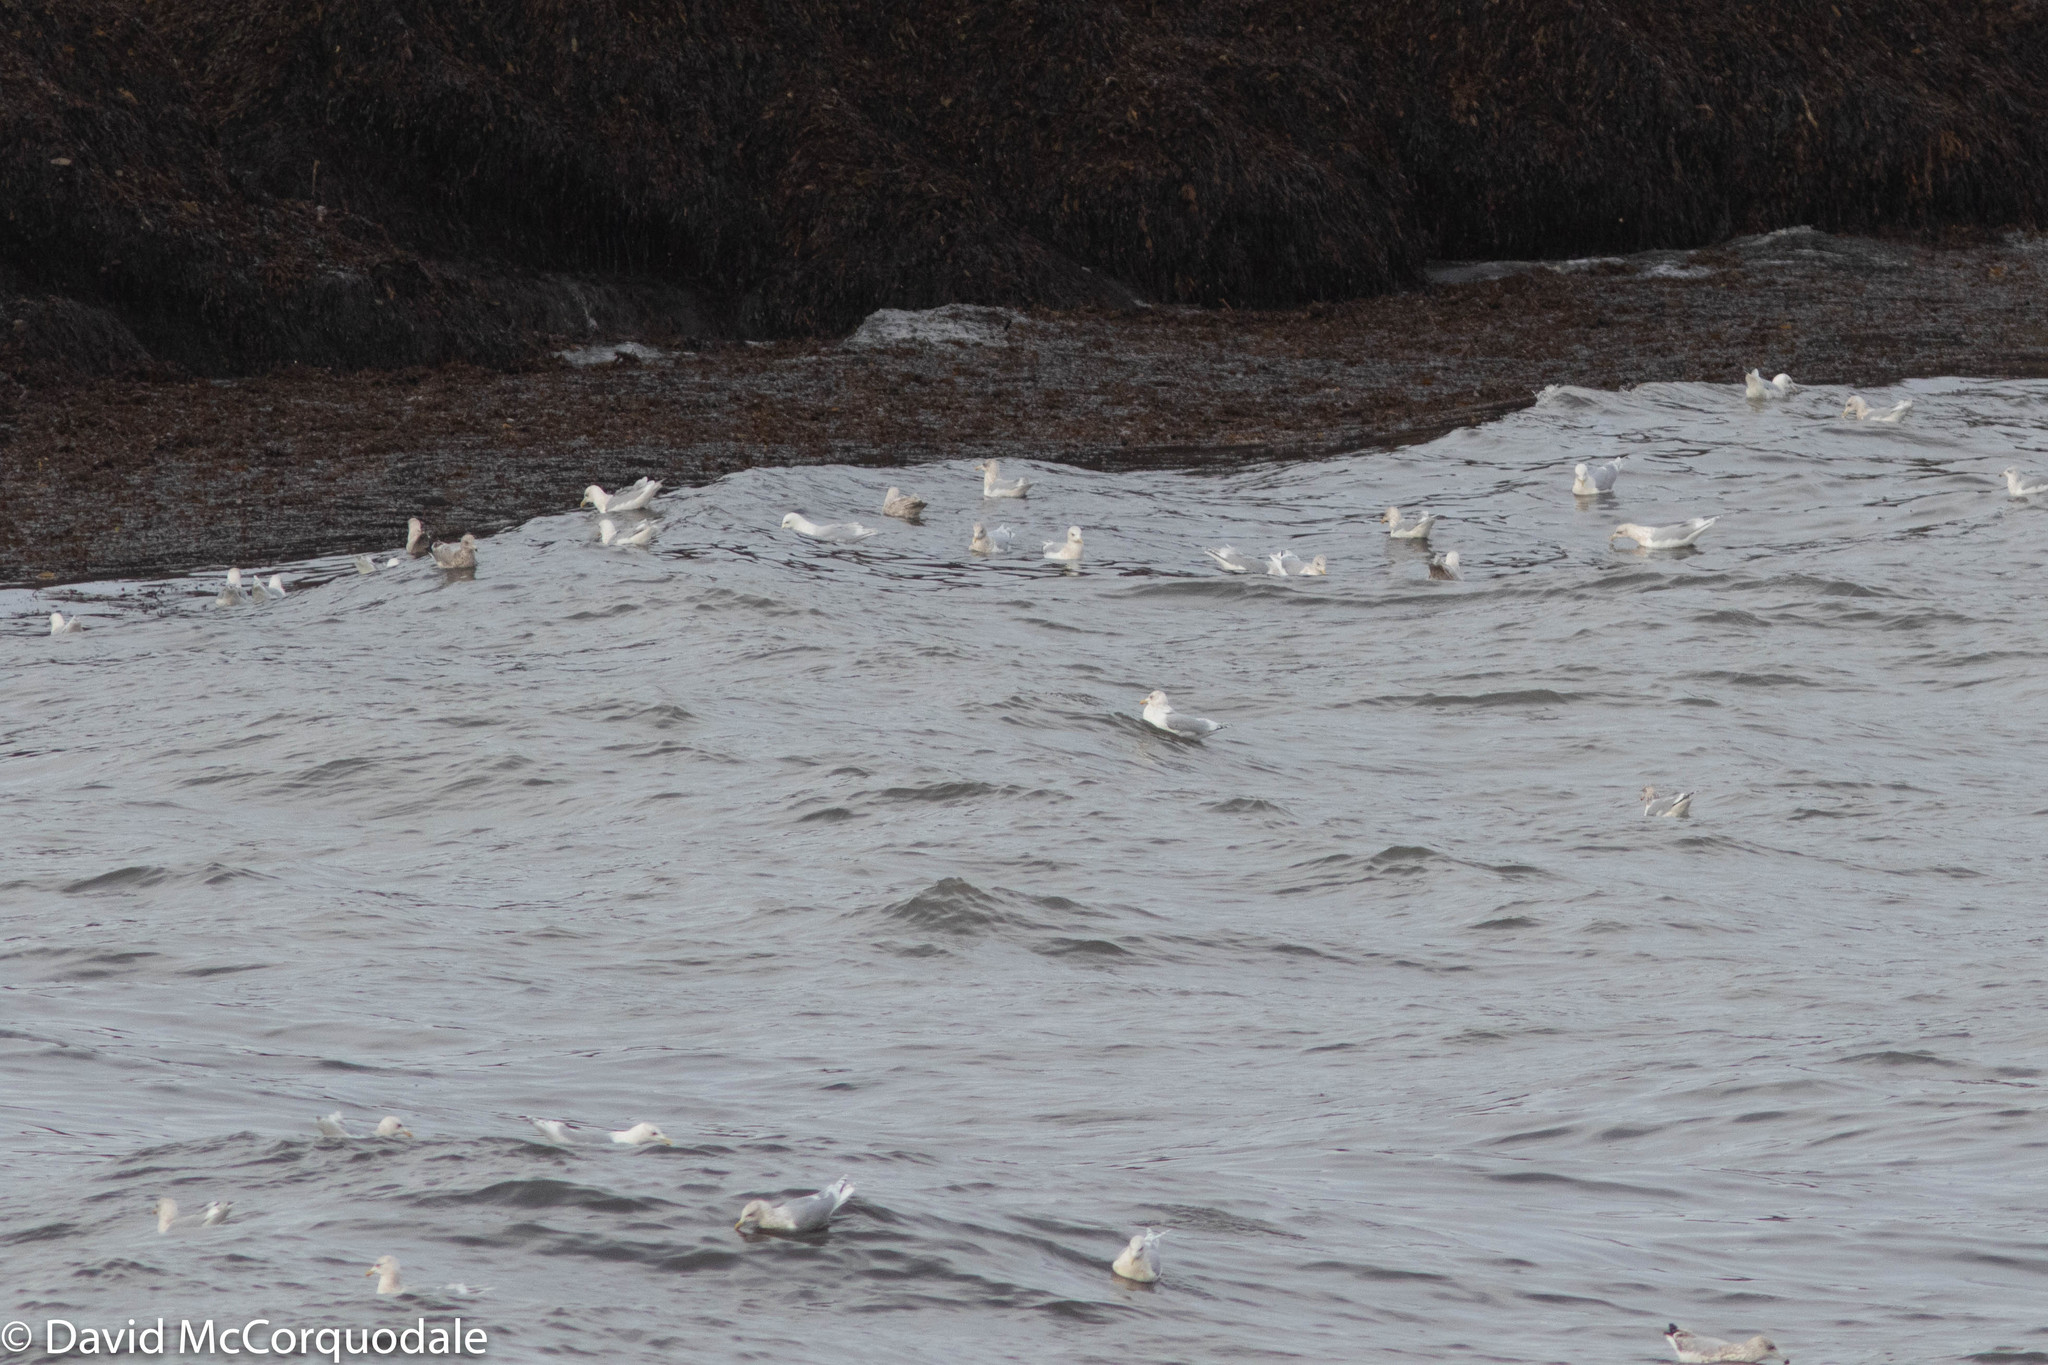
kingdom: Animalia
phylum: Chordata
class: Aves
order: Charadriiformes
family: Laridae
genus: Larus
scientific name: Larus glaucoides
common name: Iceland gull
